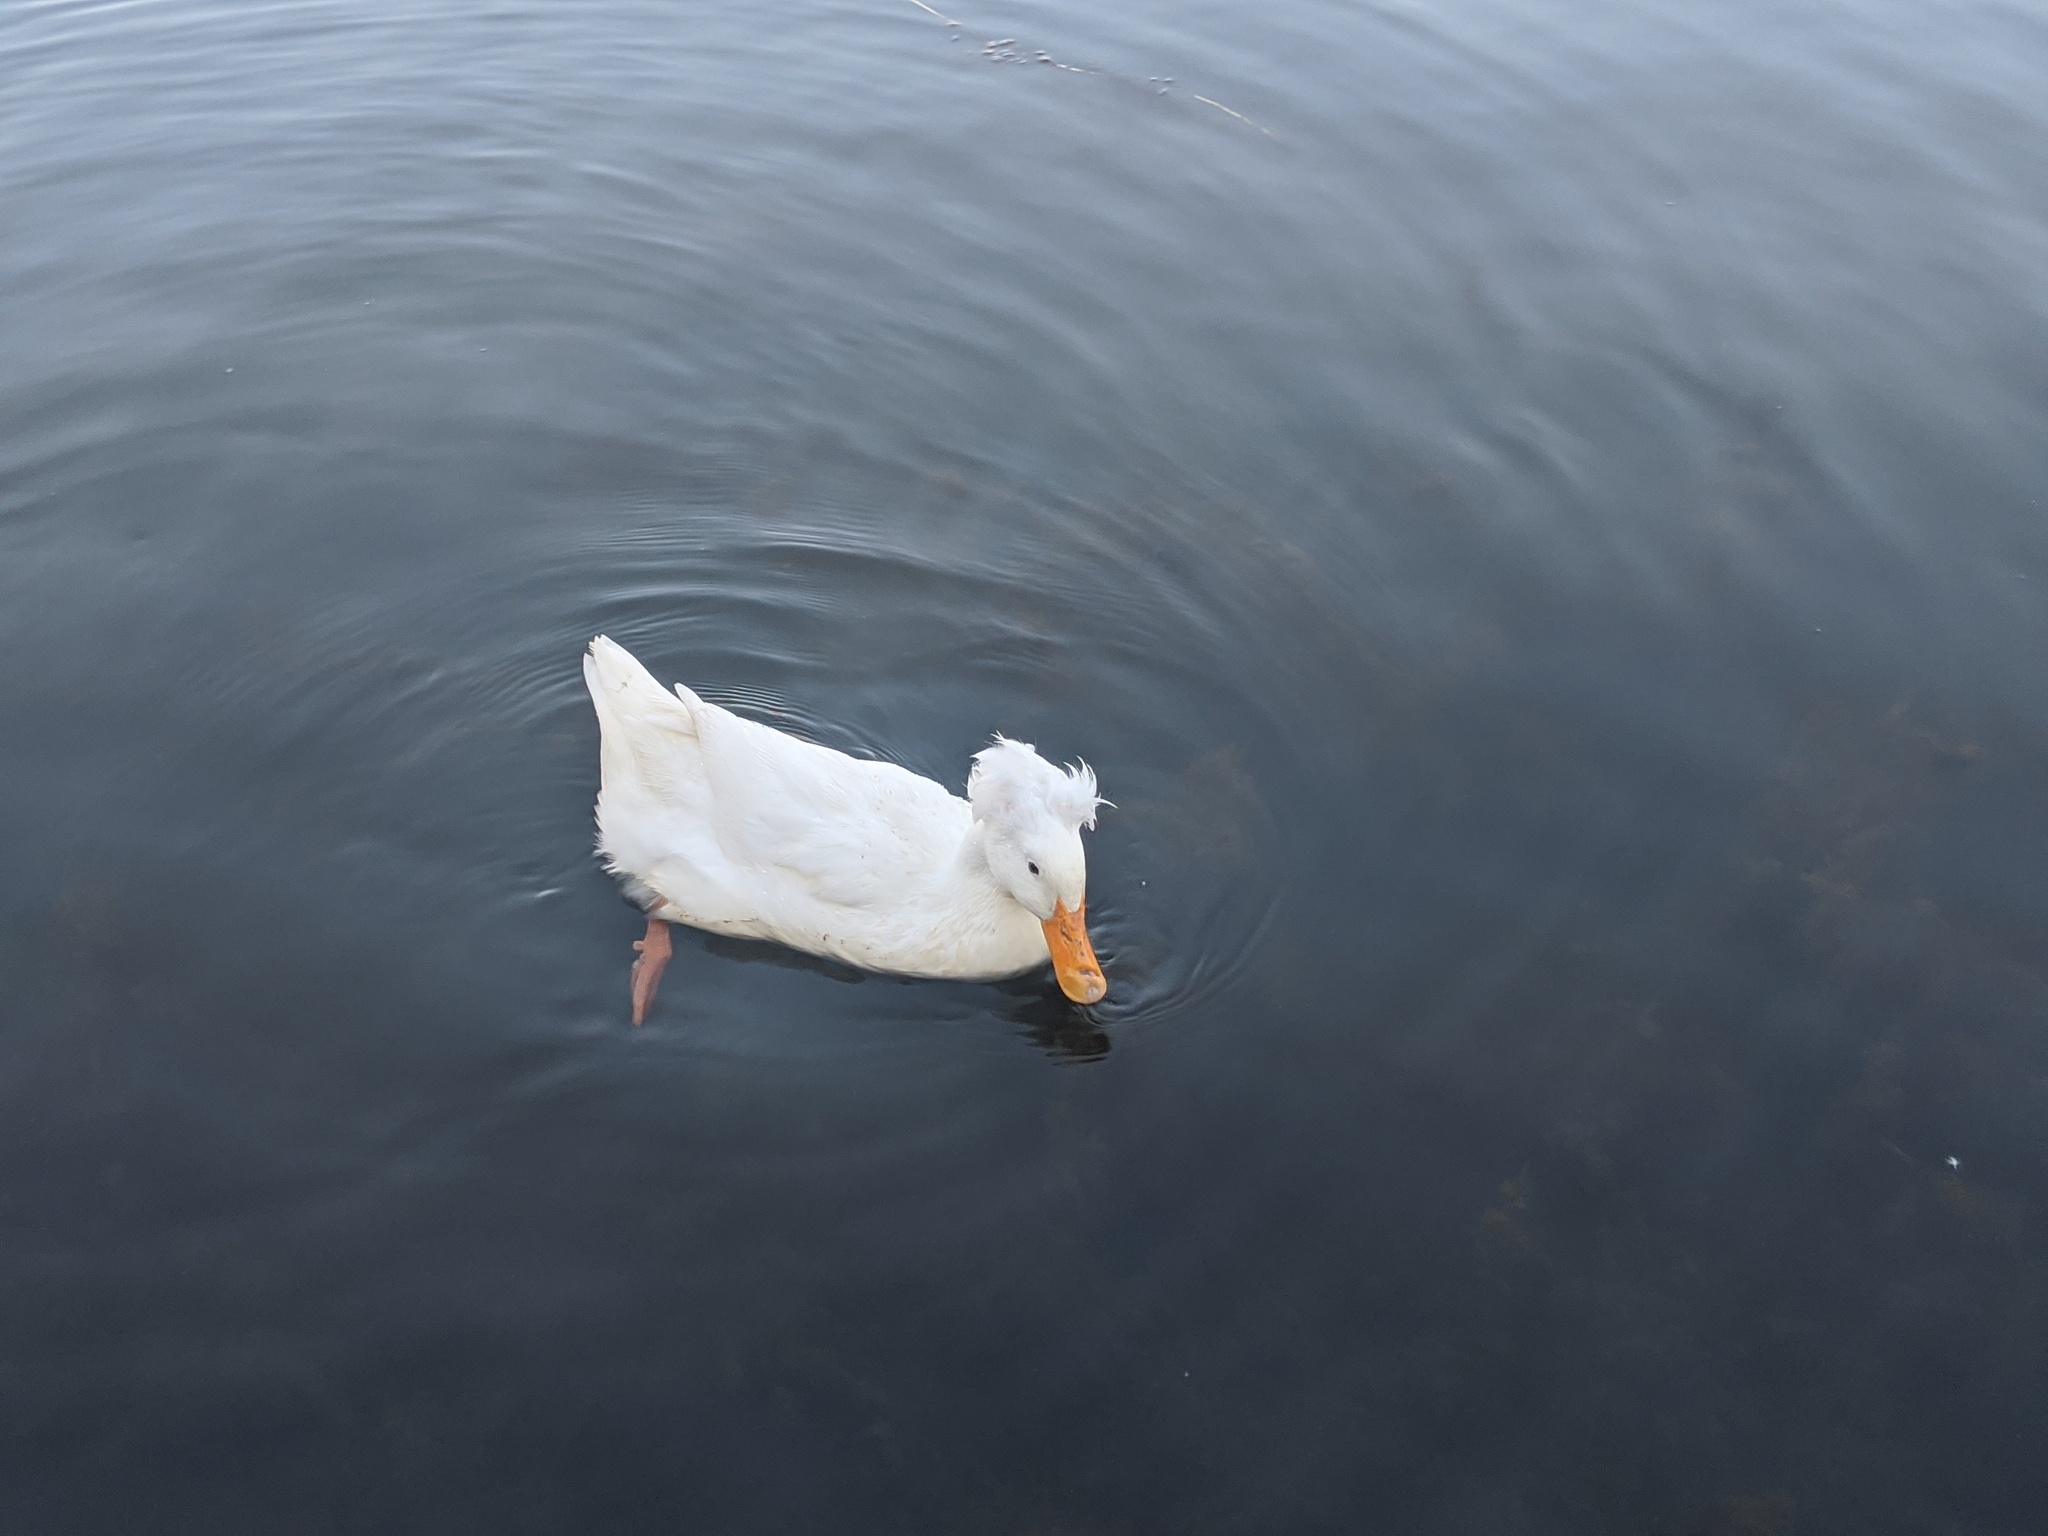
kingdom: Animalia
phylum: Chordata
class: Aves
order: Anseriformes
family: Anatidae
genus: Anas
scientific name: Anas platyrhynchos
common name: Mallard
